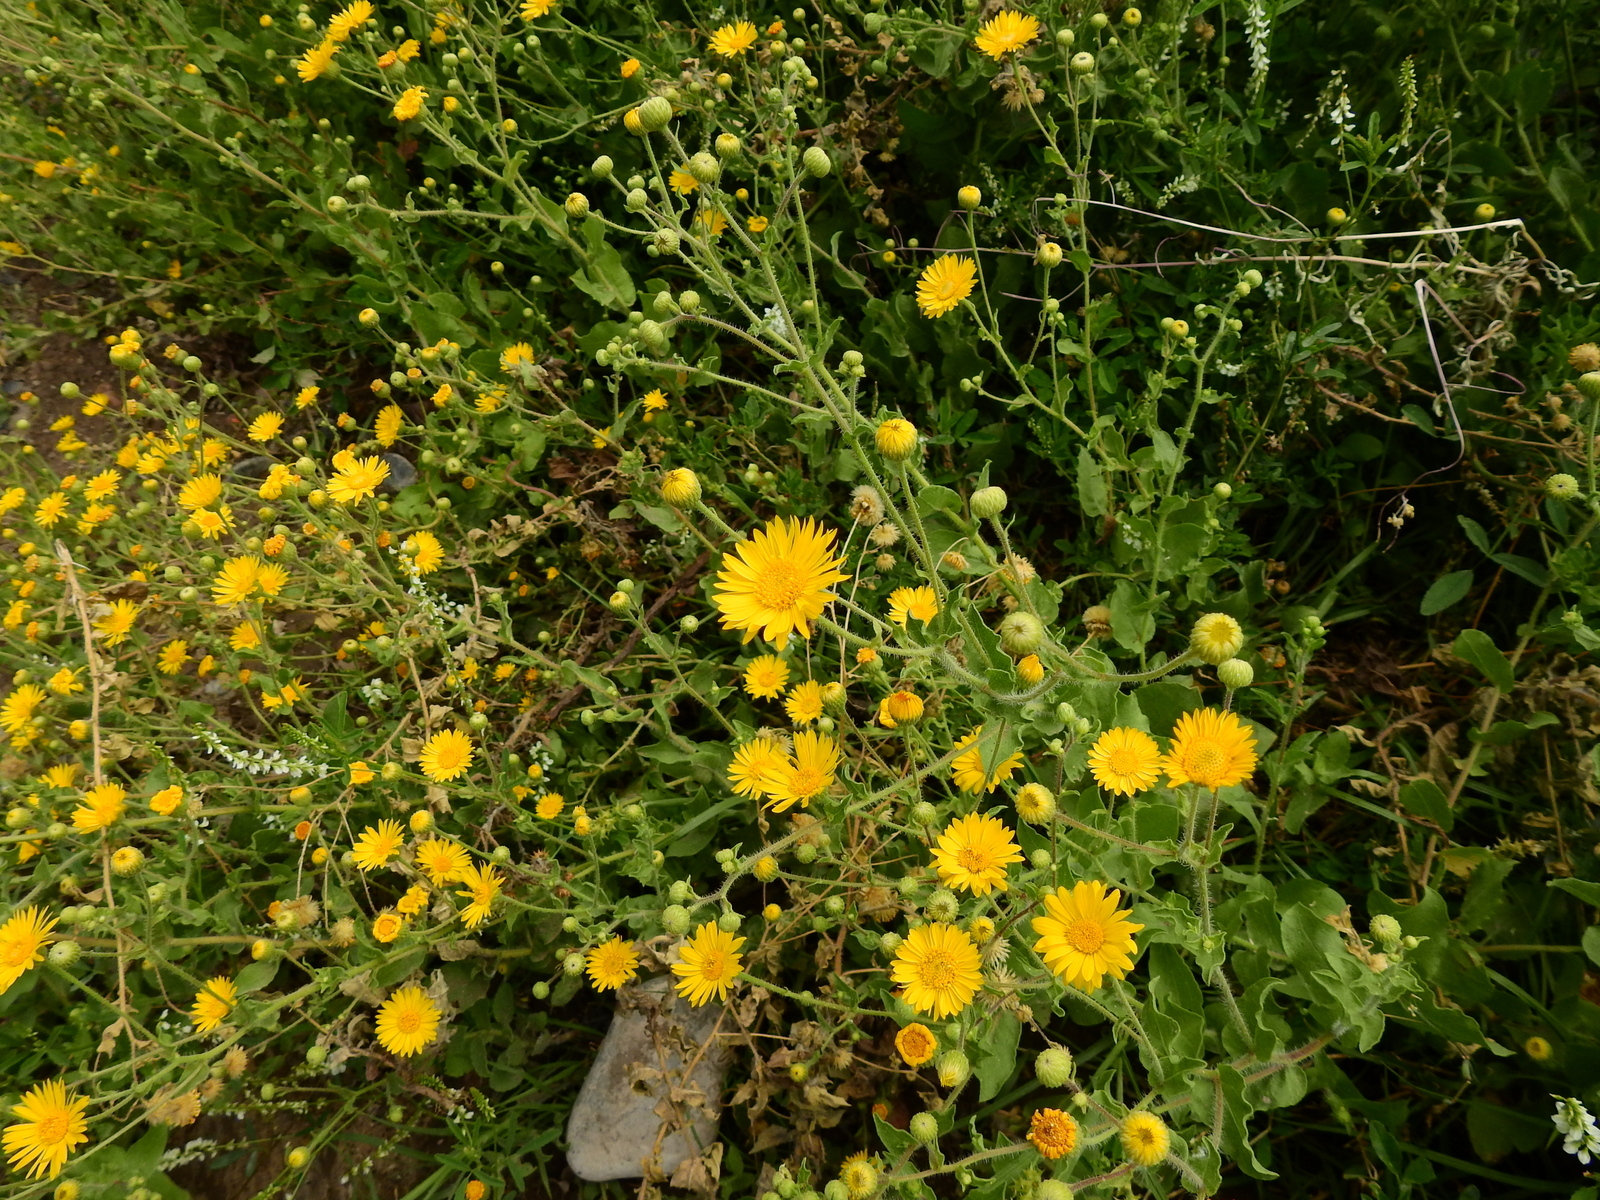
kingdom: Plantae
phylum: Tracheophyta
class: Magnoliopsida
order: Asterales
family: Asteraceae
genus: Heterotheca
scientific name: Heterotheca subaxillaris
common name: Camphorweed
